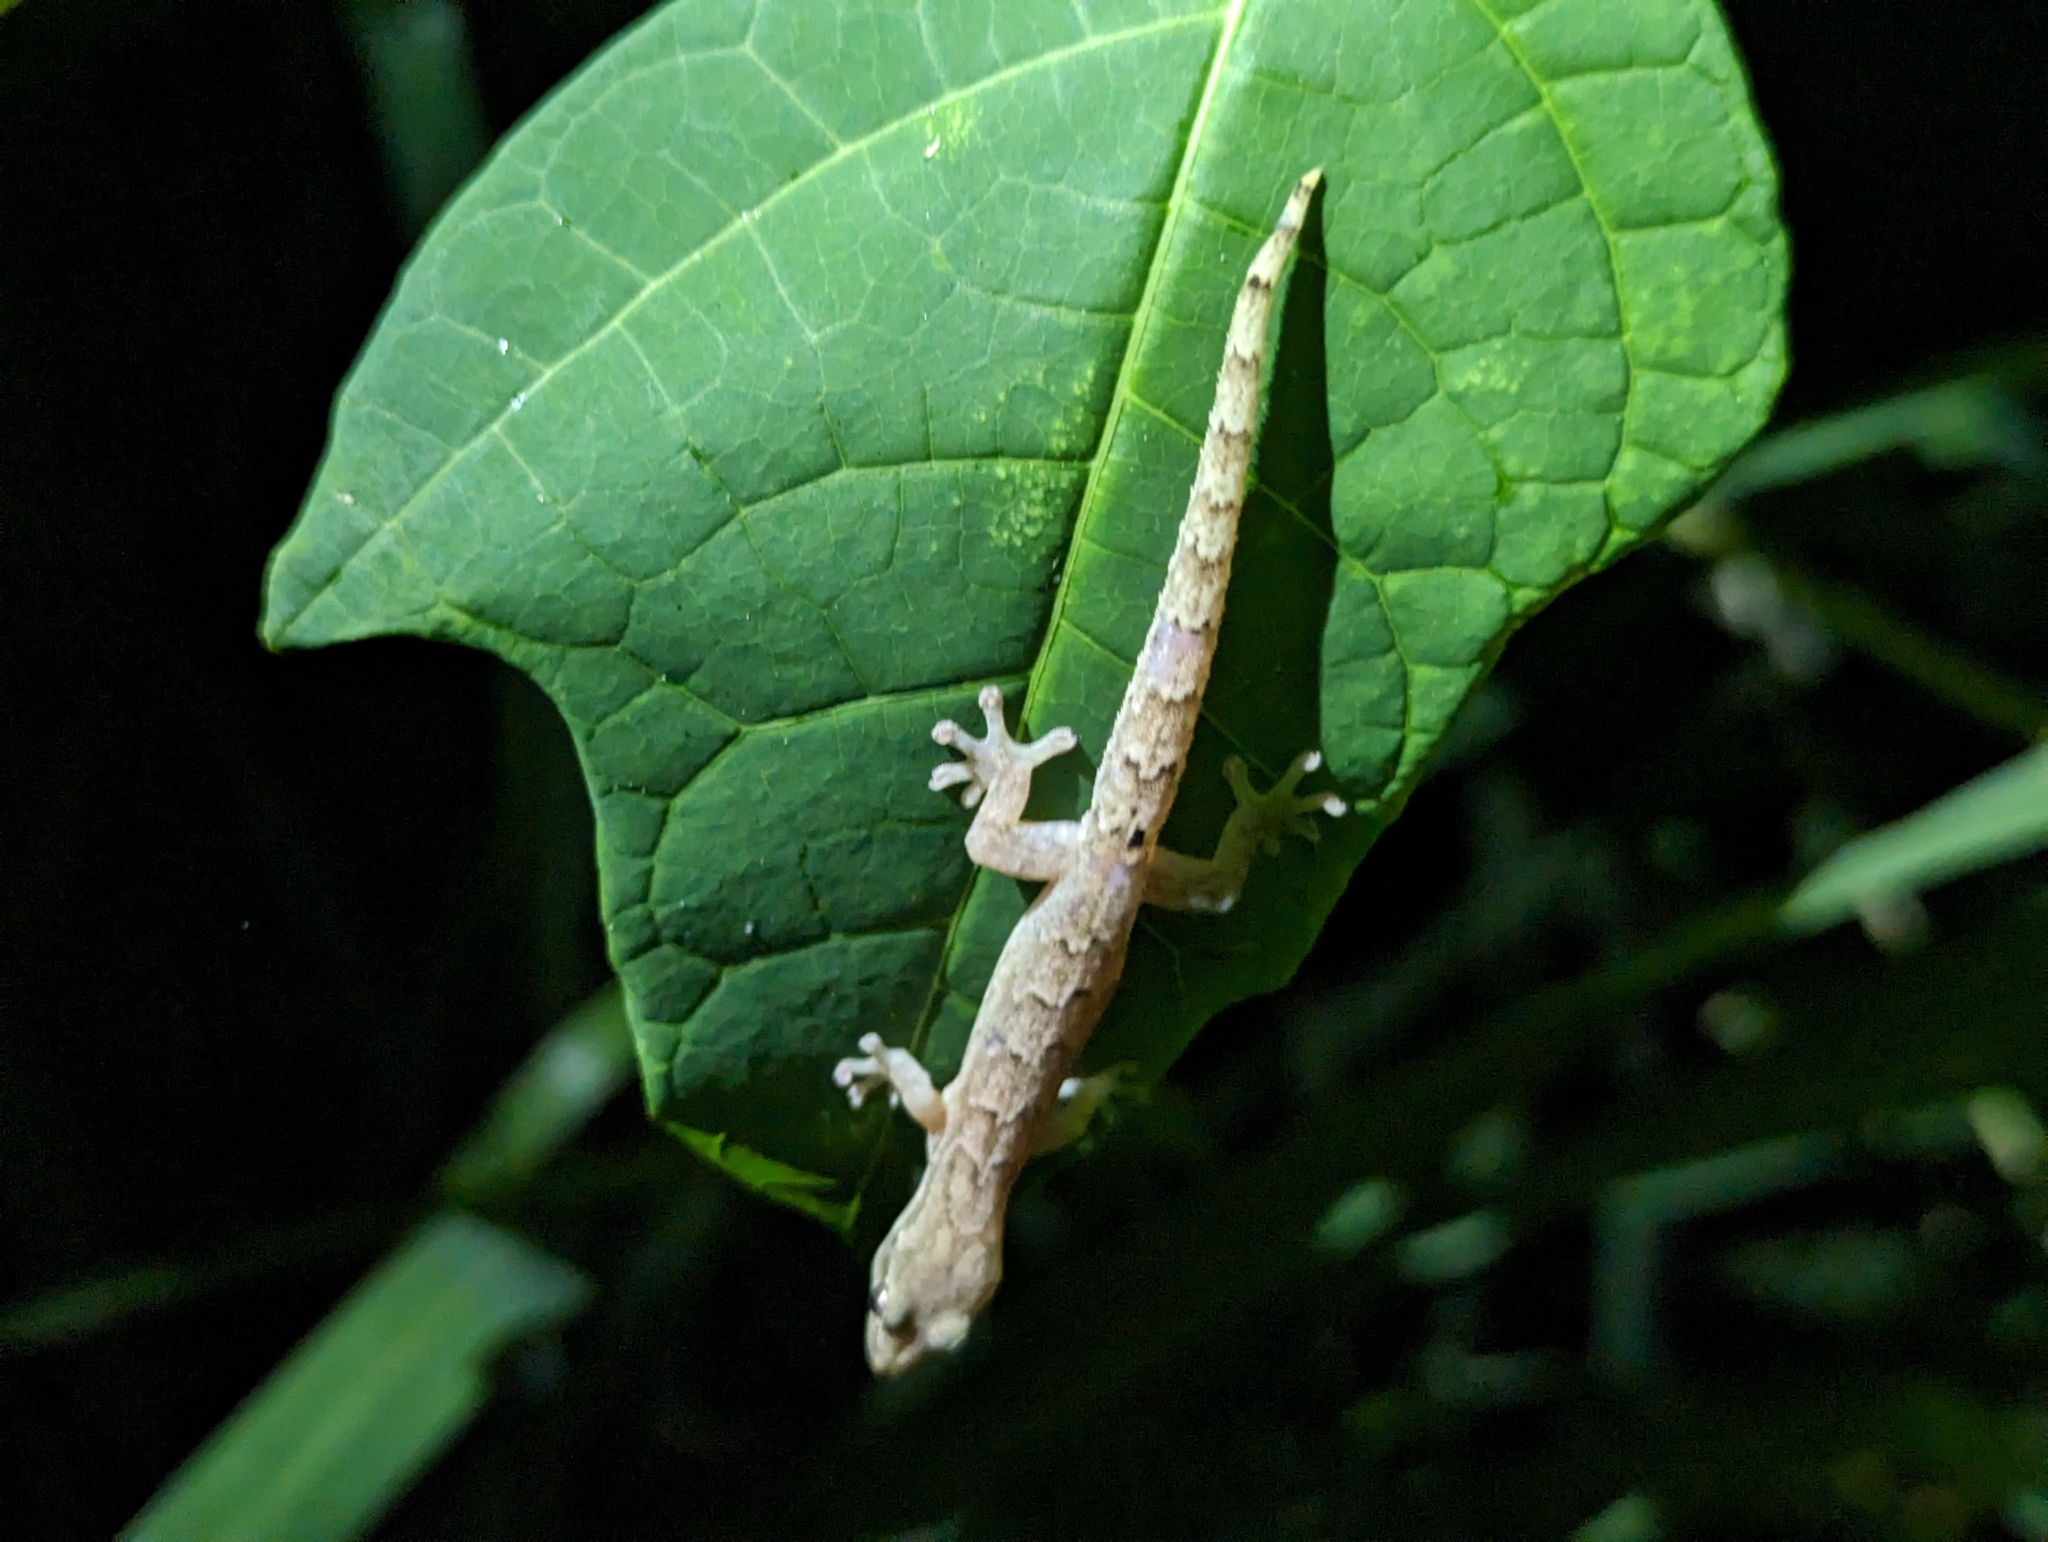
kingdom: Animalia
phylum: Chordata
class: Squamata
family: Gekkonidae
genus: Lepidodactylus
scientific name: Lepidodactylus lugubris
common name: Mourning gecko
